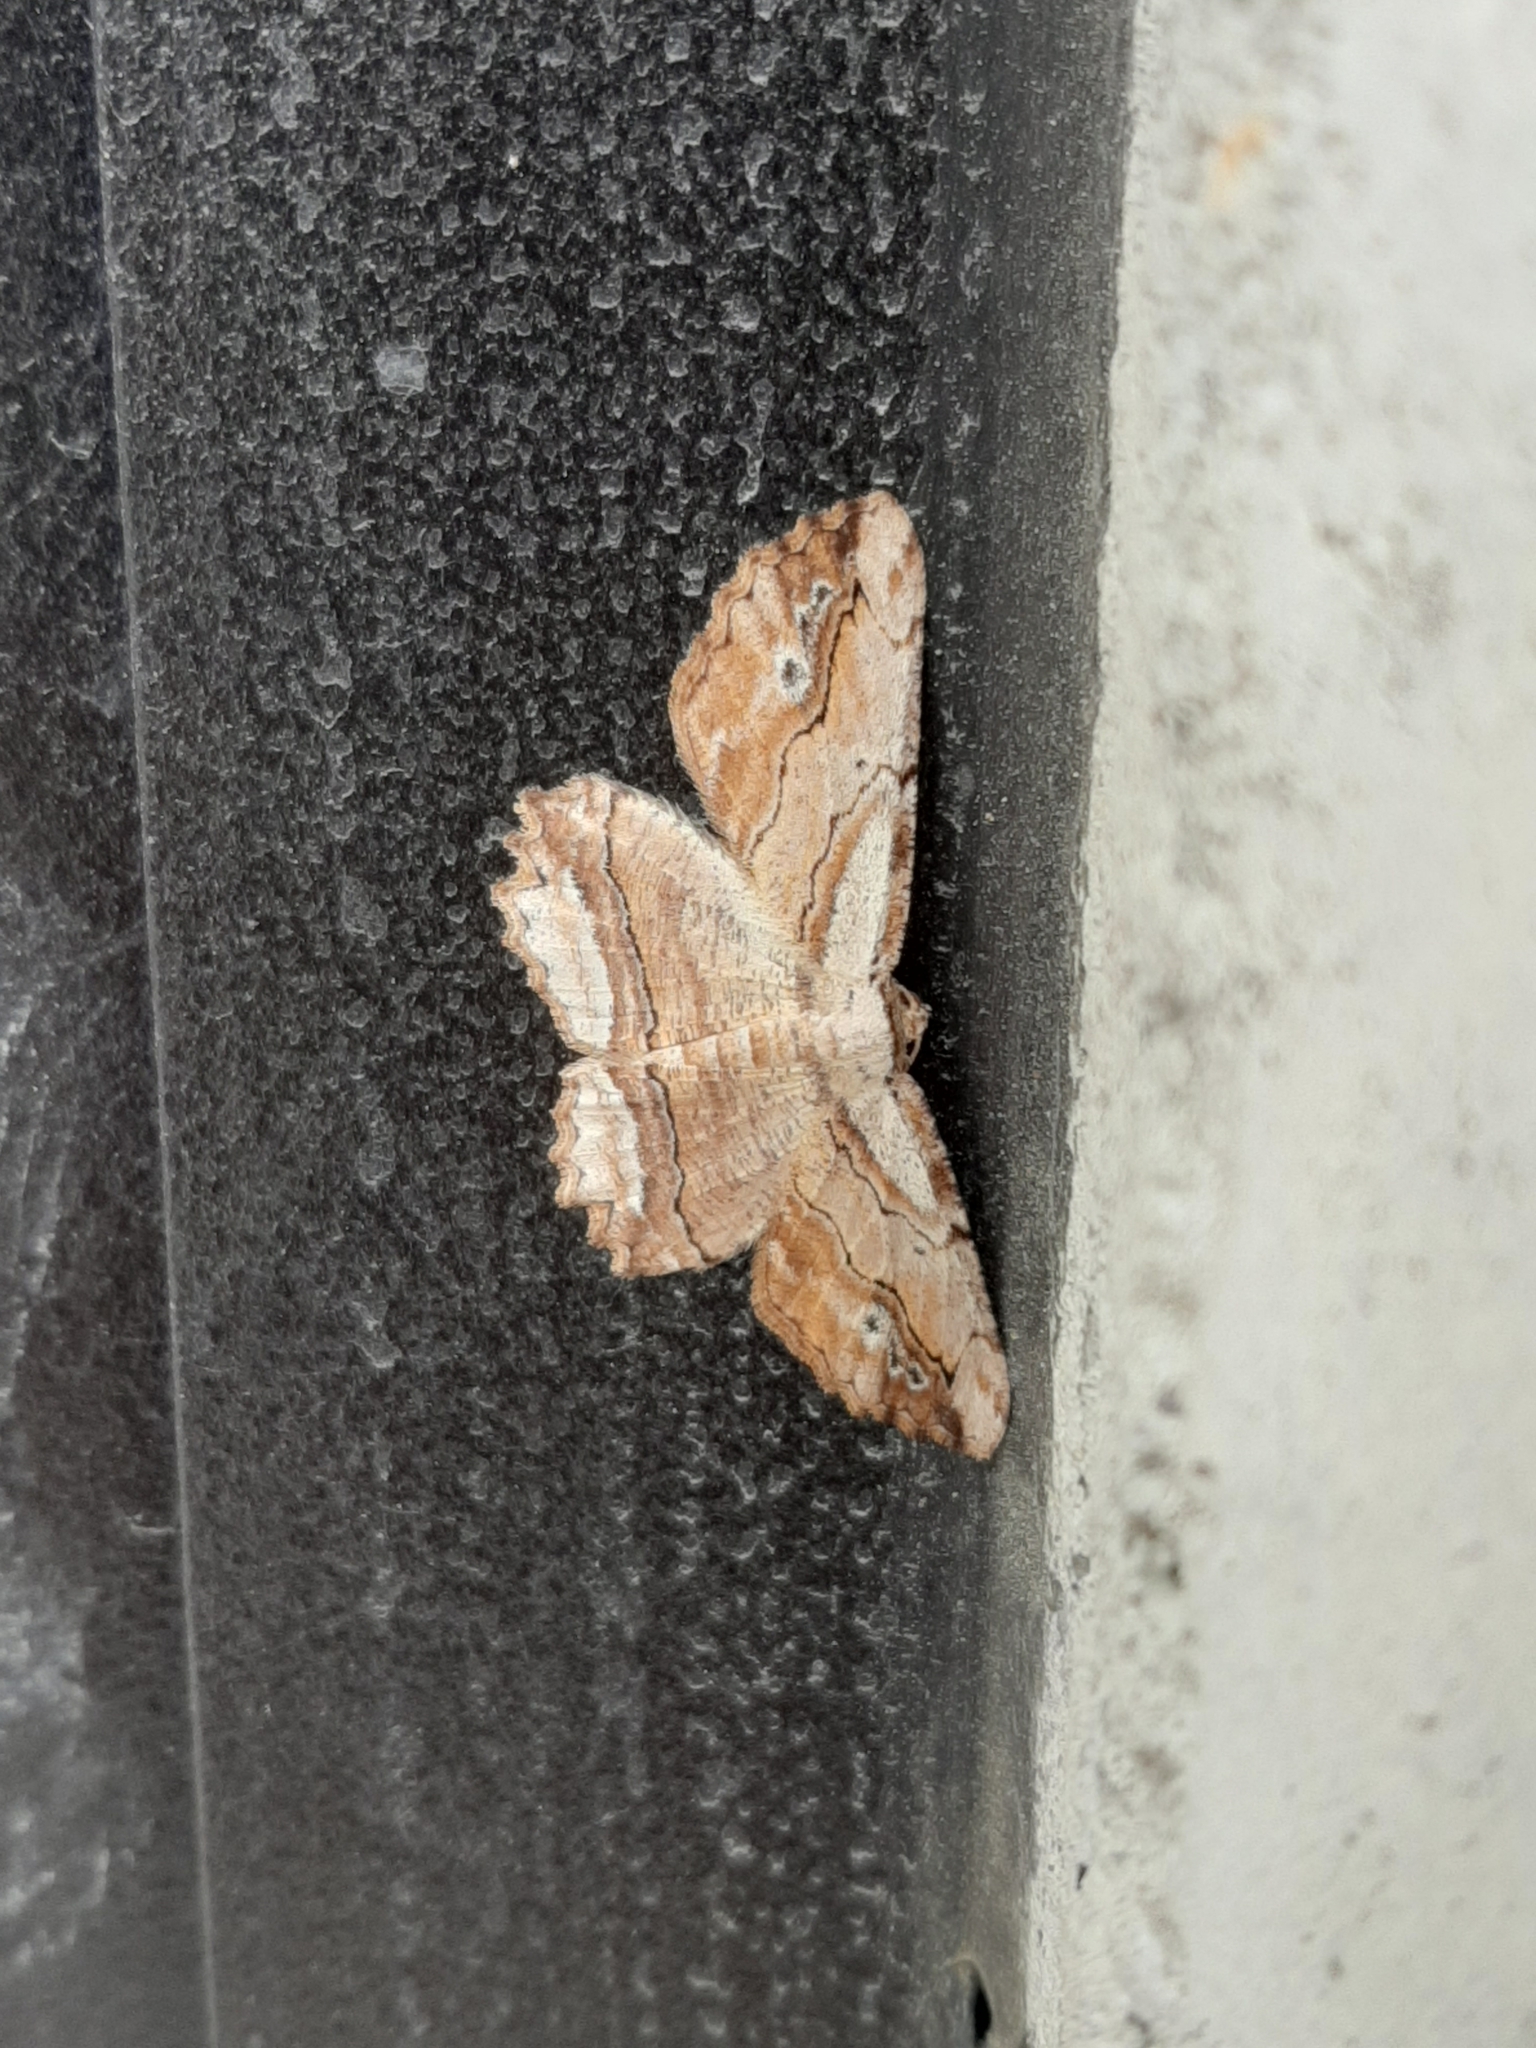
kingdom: Animalia
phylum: Arthropoda
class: Insecta
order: Lepidoptera
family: Geometridae
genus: Menophra
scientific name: Menophra abruptaria
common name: Waved umber
